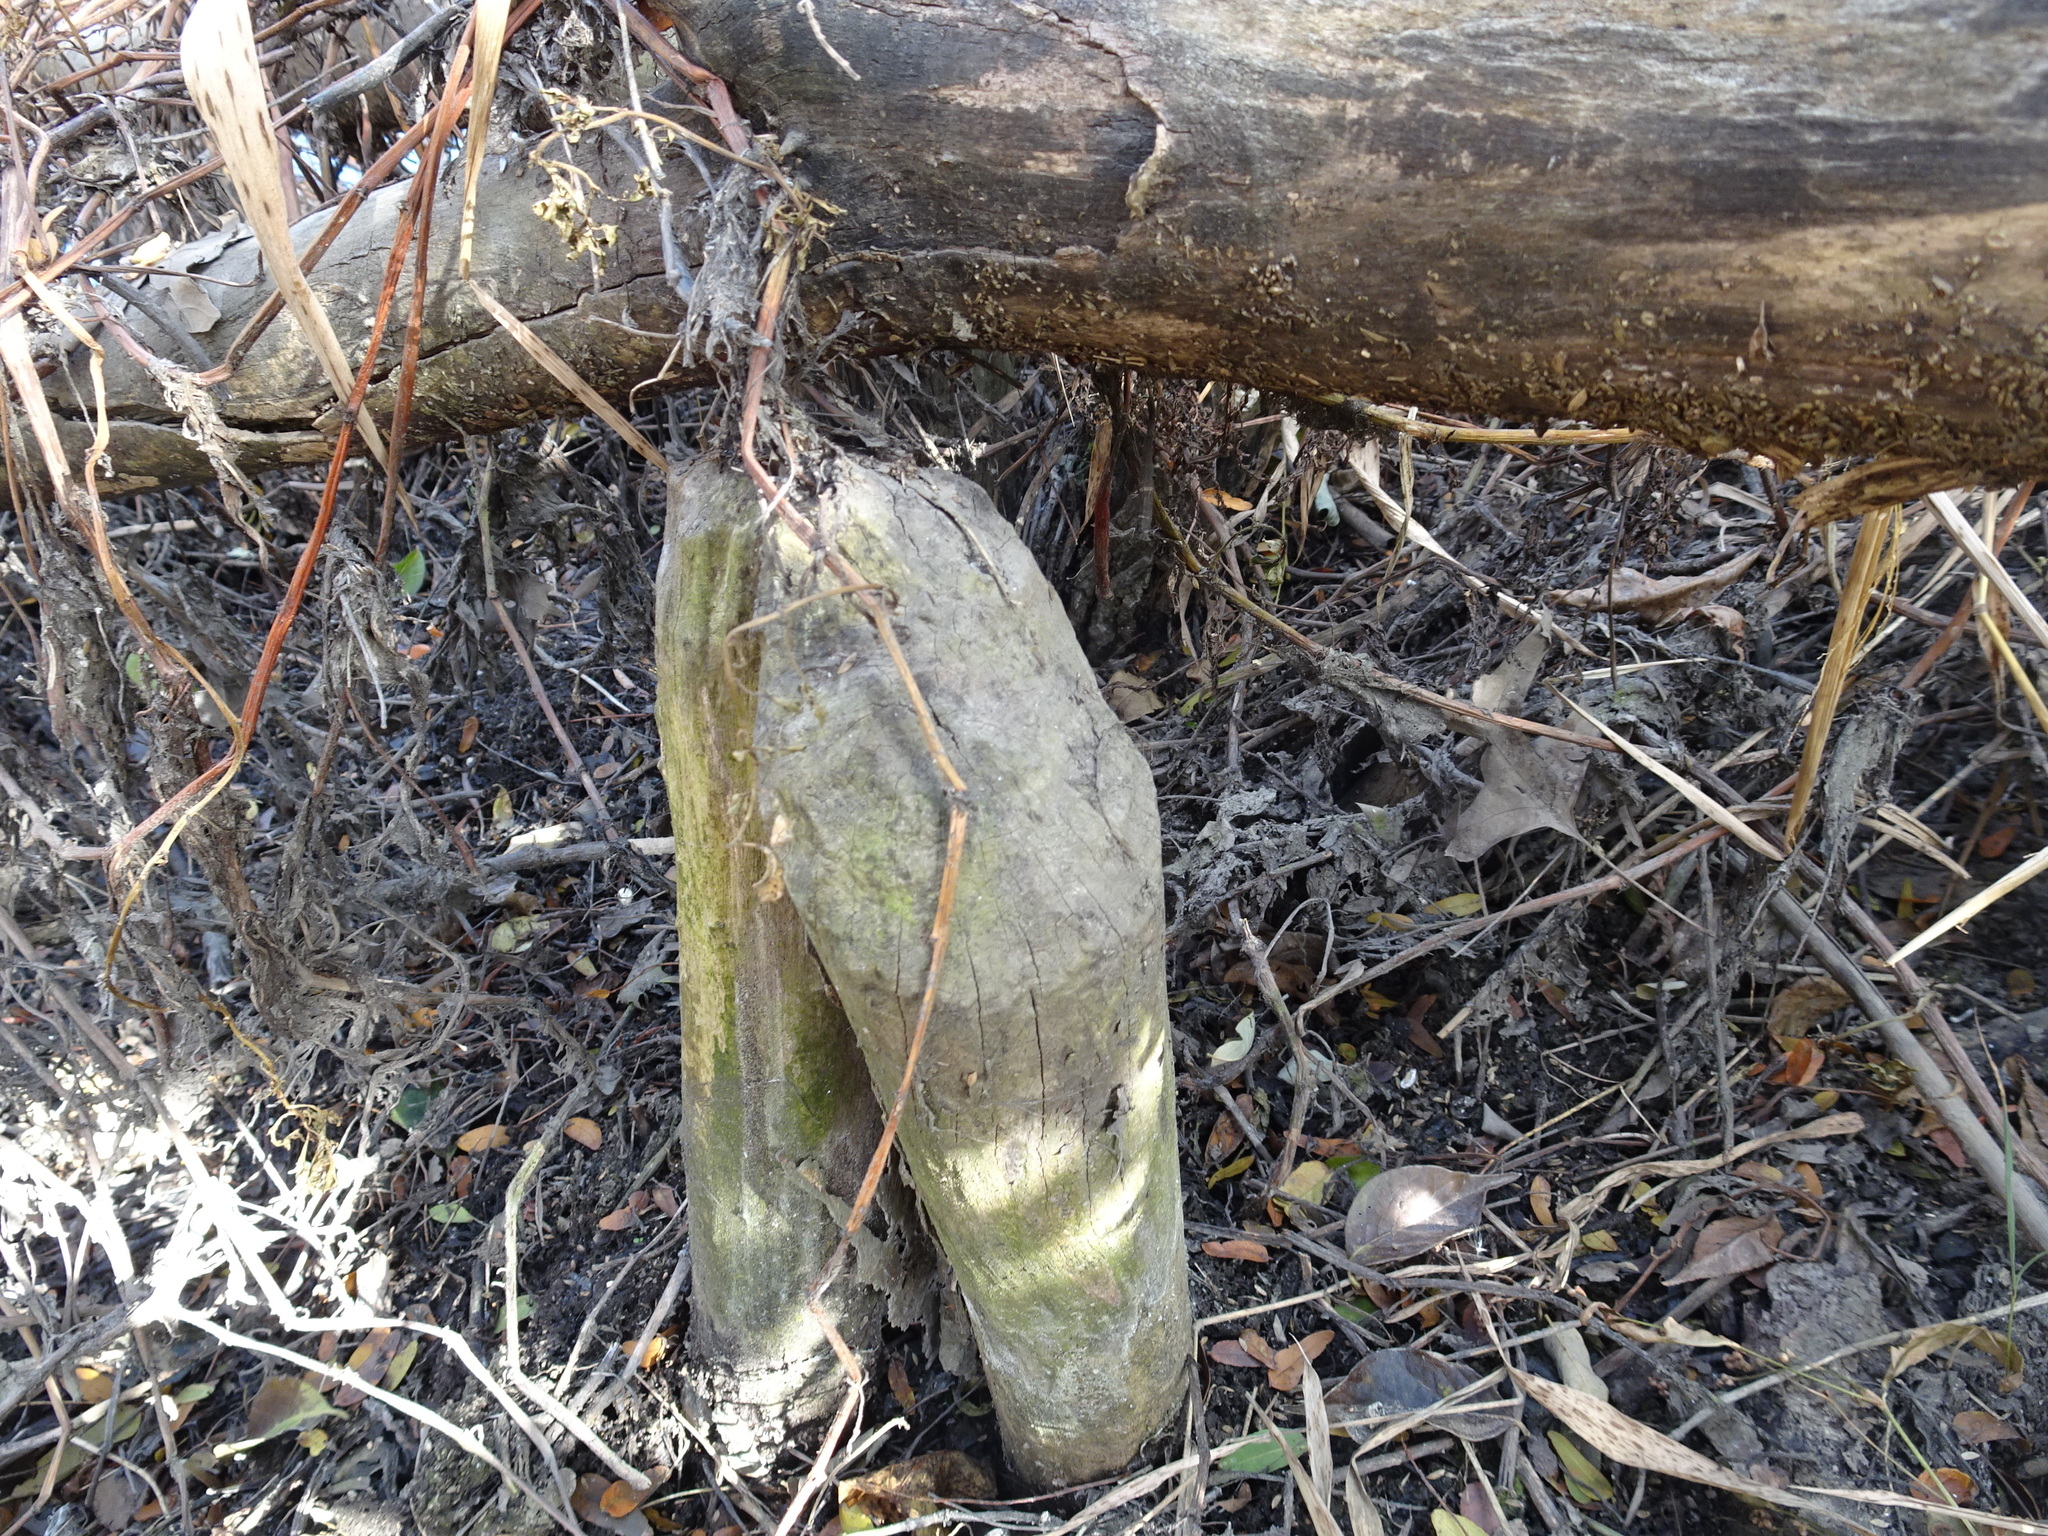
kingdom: Animalia
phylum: Chordata
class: Mammalia
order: Rodentia
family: Castoridae
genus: Castor
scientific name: Castor canadensis
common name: American beaver
